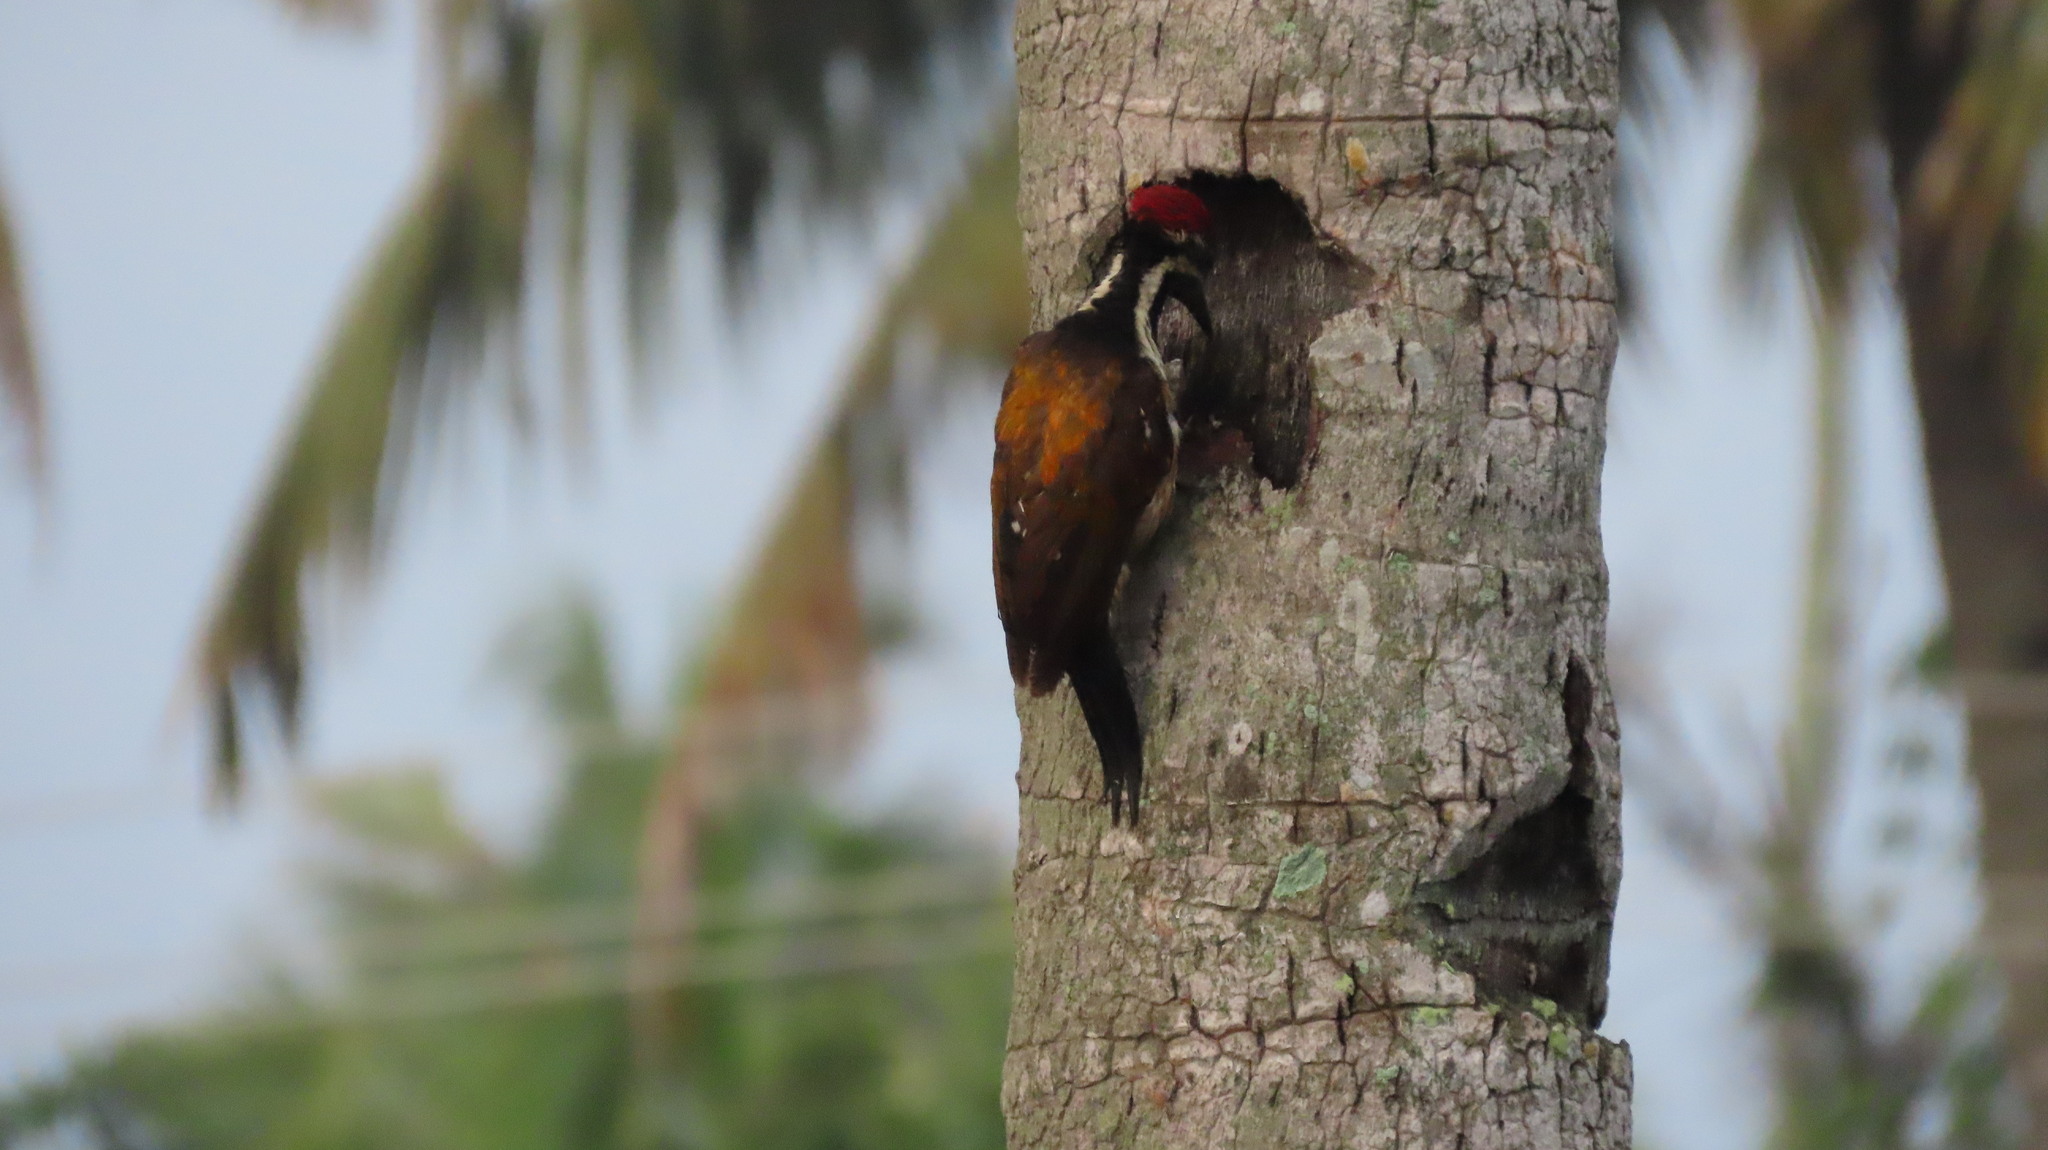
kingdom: Animalia
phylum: Chordata
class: Aves
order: Piciformes
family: Picidae
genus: Dinopium
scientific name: Dinopium benghalense
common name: Black-rumped flameback
